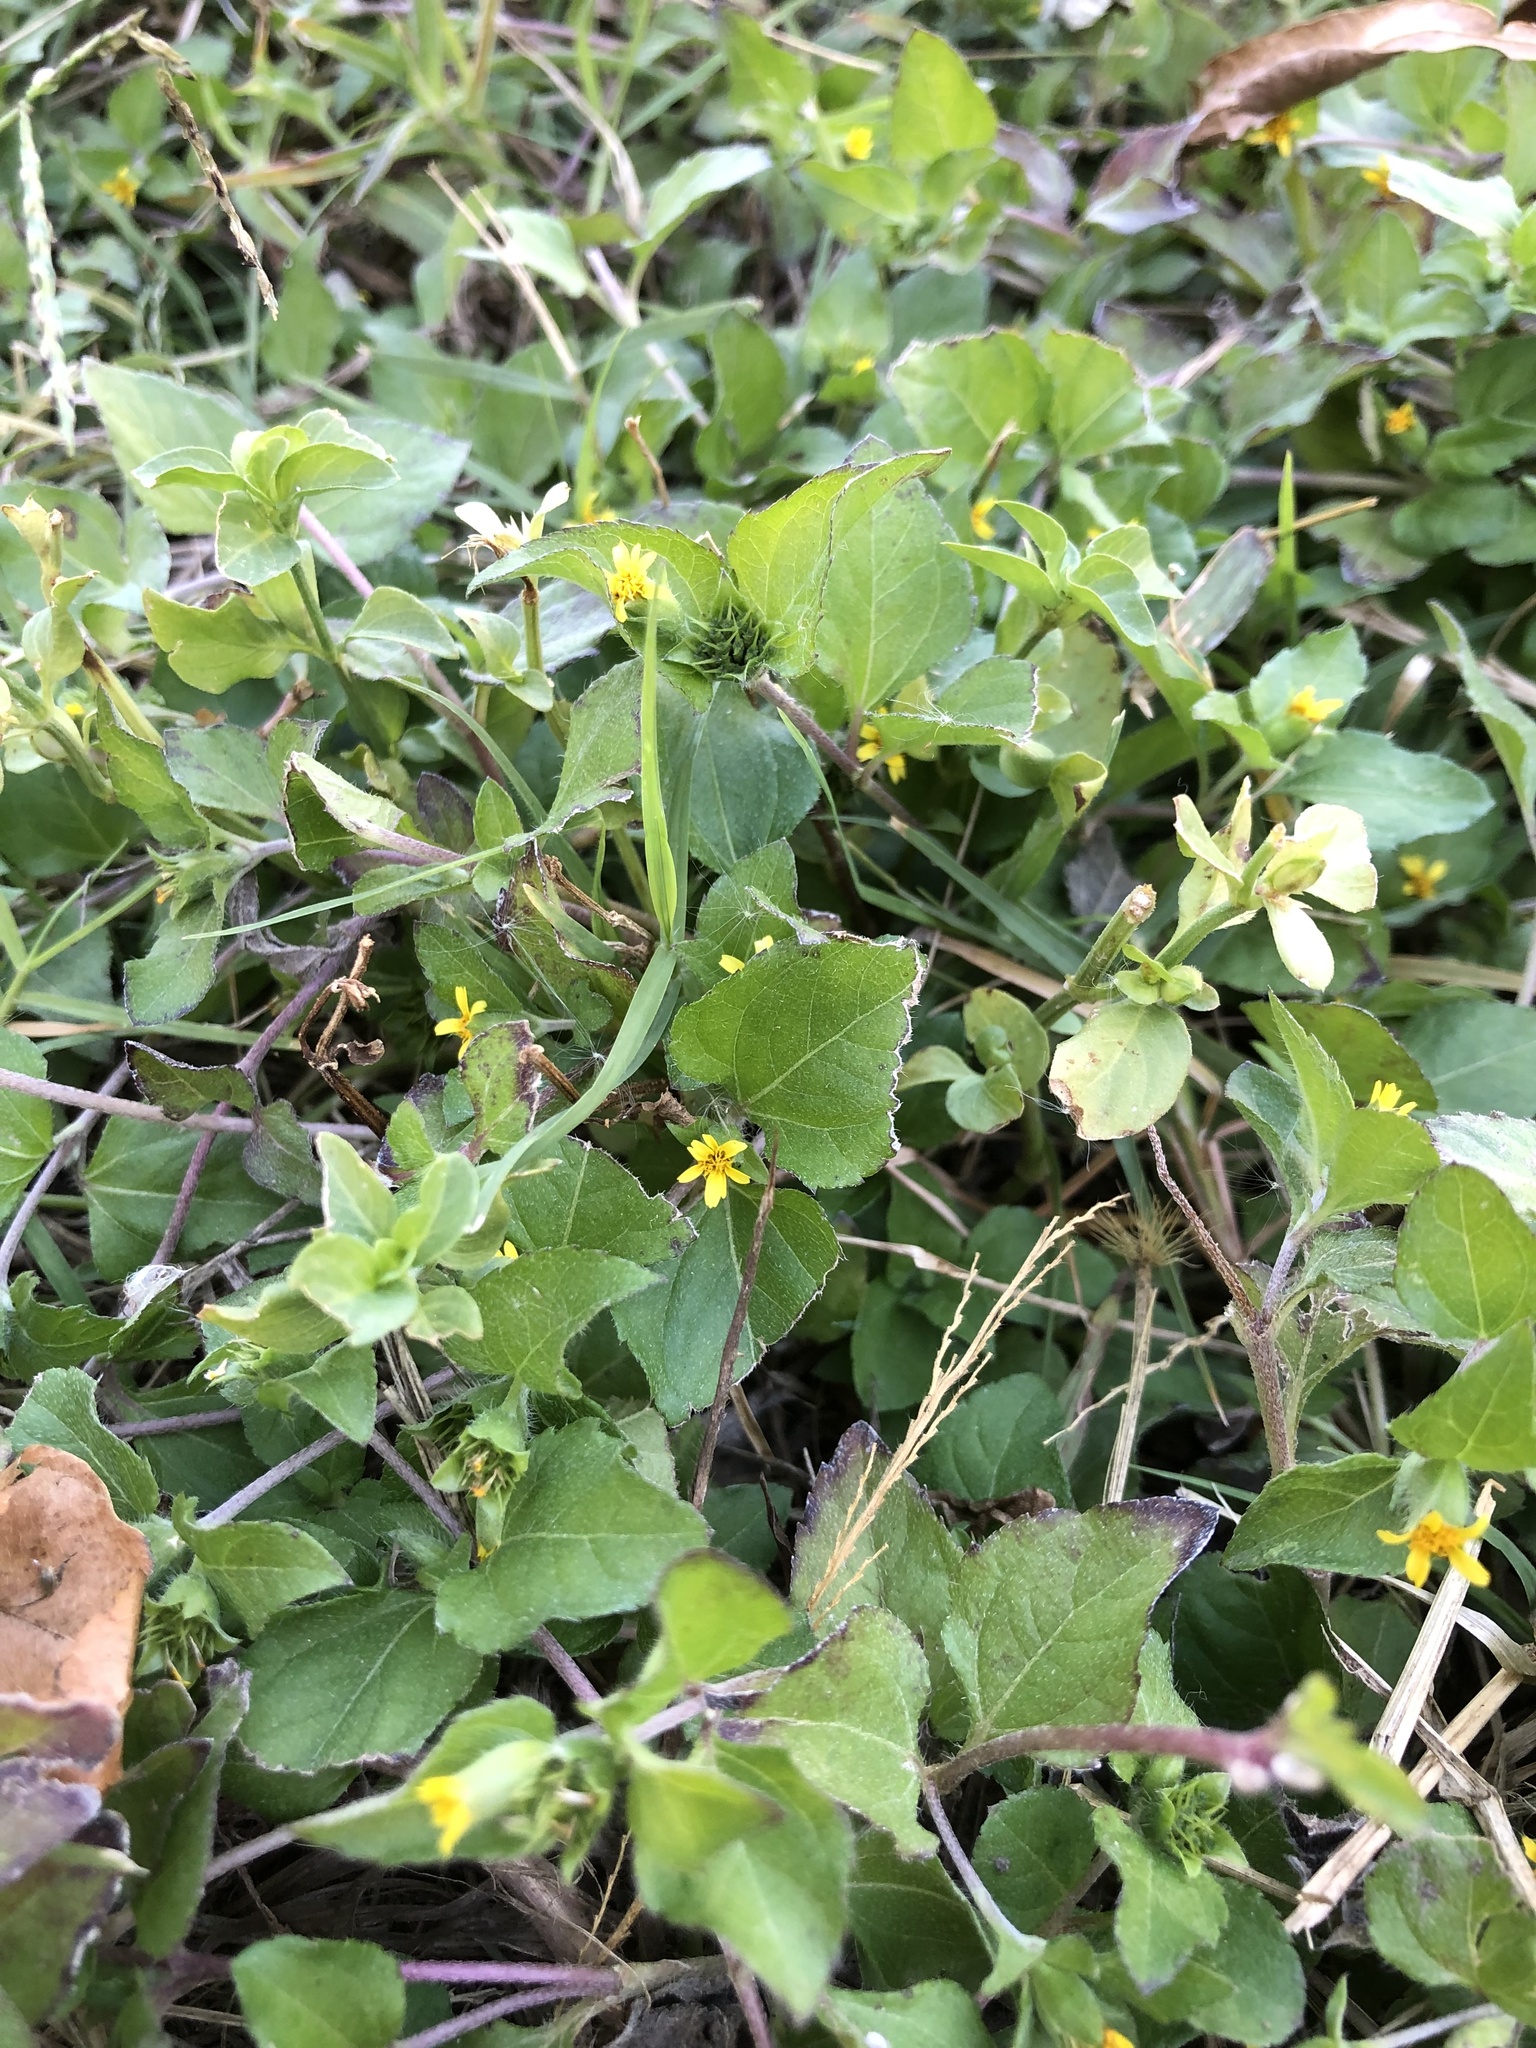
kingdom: Plantae
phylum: Tracheophyta
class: Magnoliopsida
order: Asterales
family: Asteraceae
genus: Calyptocarpus
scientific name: Calyptocarpus vialis
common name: Straggler daisy
